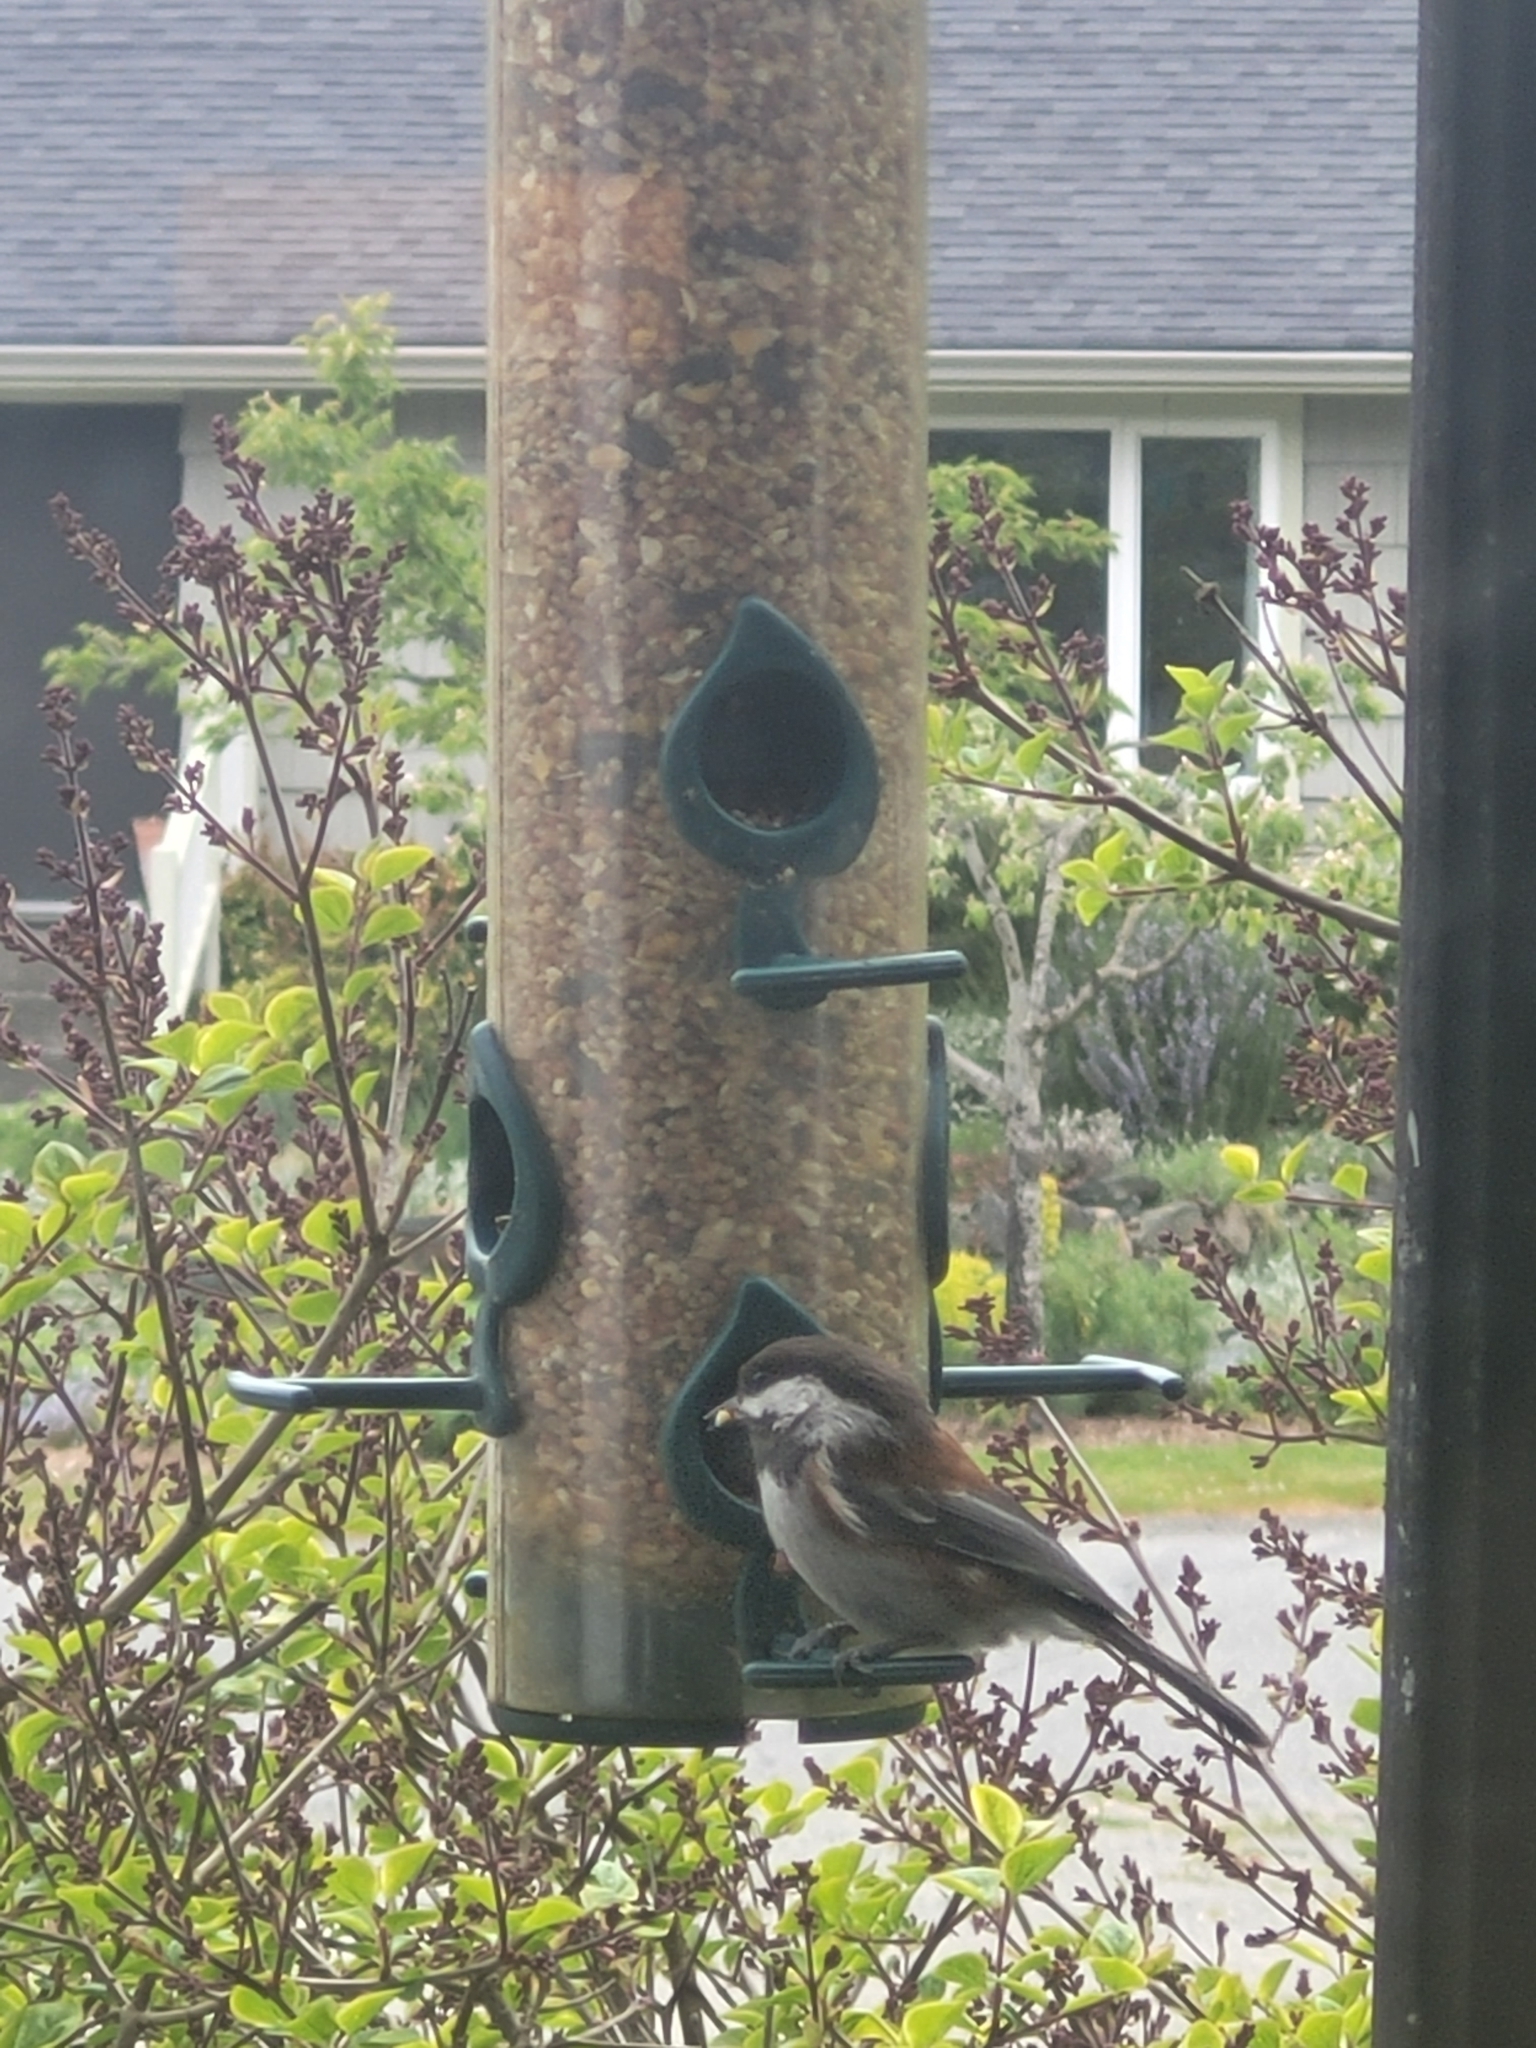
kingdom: Animalia
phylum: Chordata
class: Aves
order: Passeriformes
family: Paridae
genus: Poecile
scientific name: Poecile rufescens
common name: Chestnut-backed chickadee
